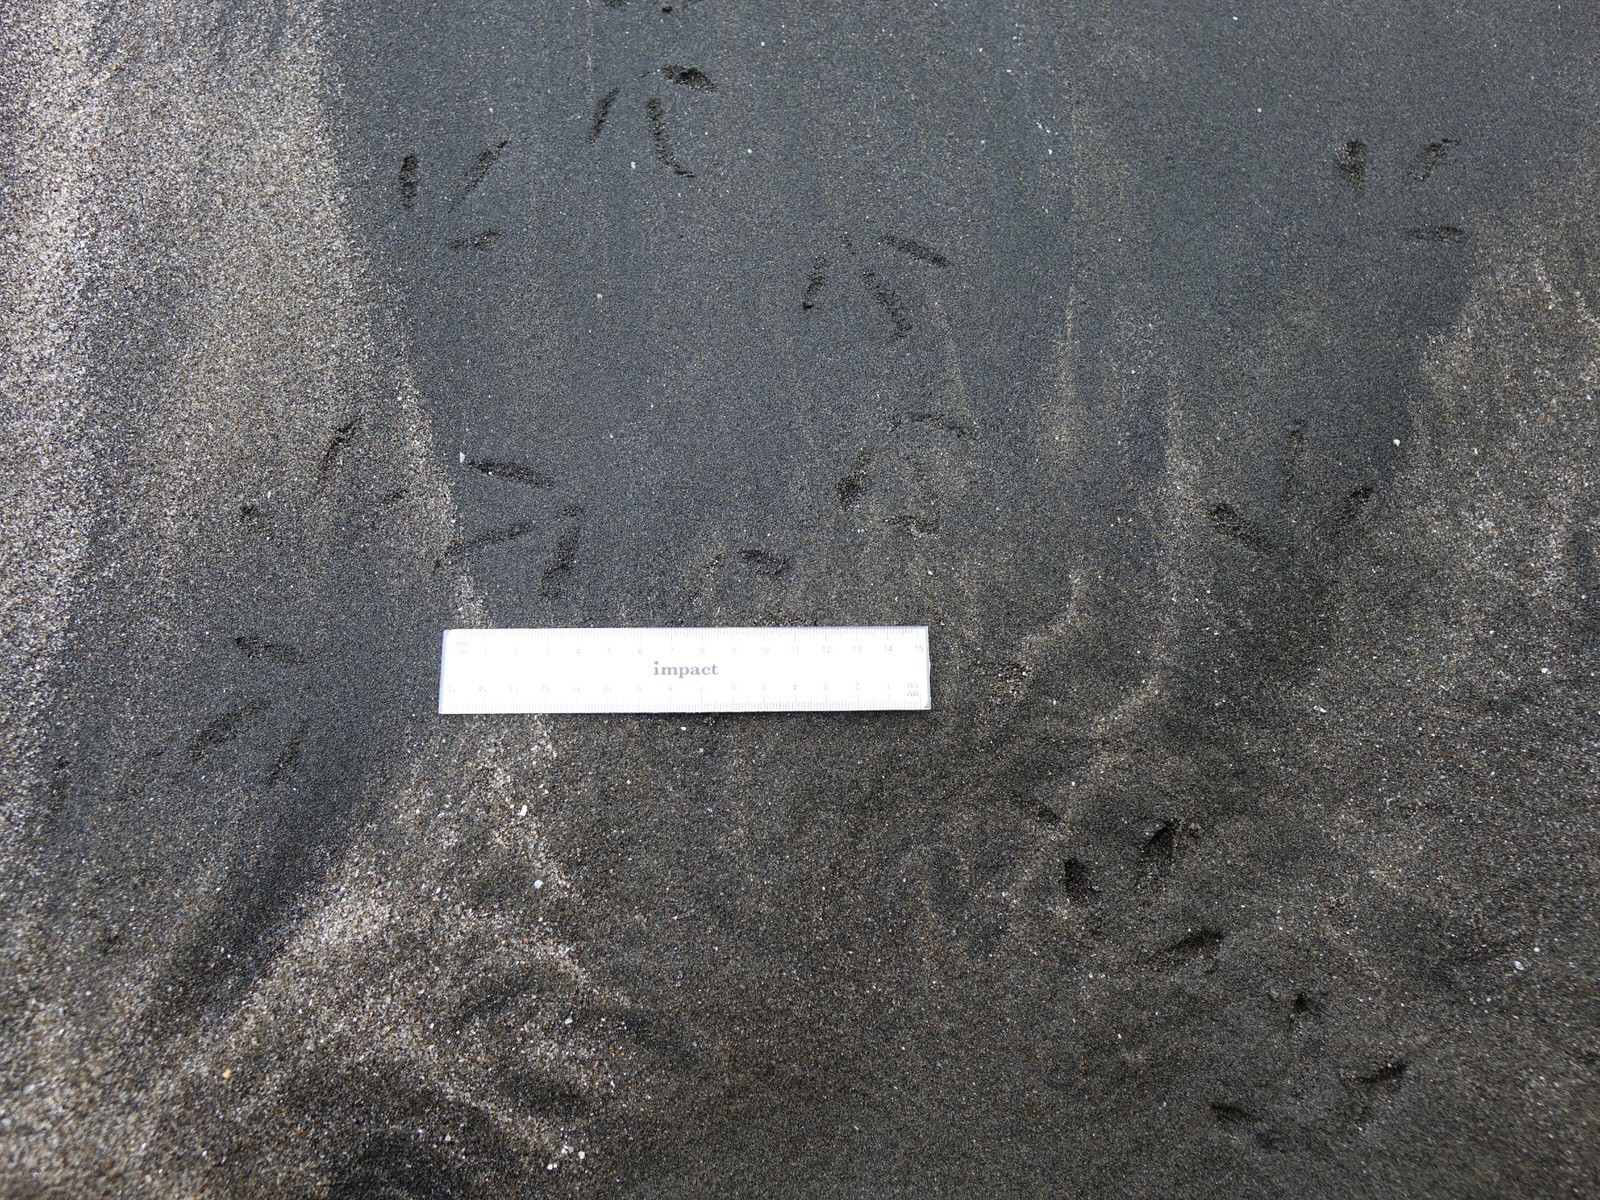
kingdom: Animalia
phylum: Chordata
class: Aves
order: Charadriiformes
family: Haematopodidae
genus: Haematopus
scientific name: Haematopus unicolor
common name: Variable oystercatcher
